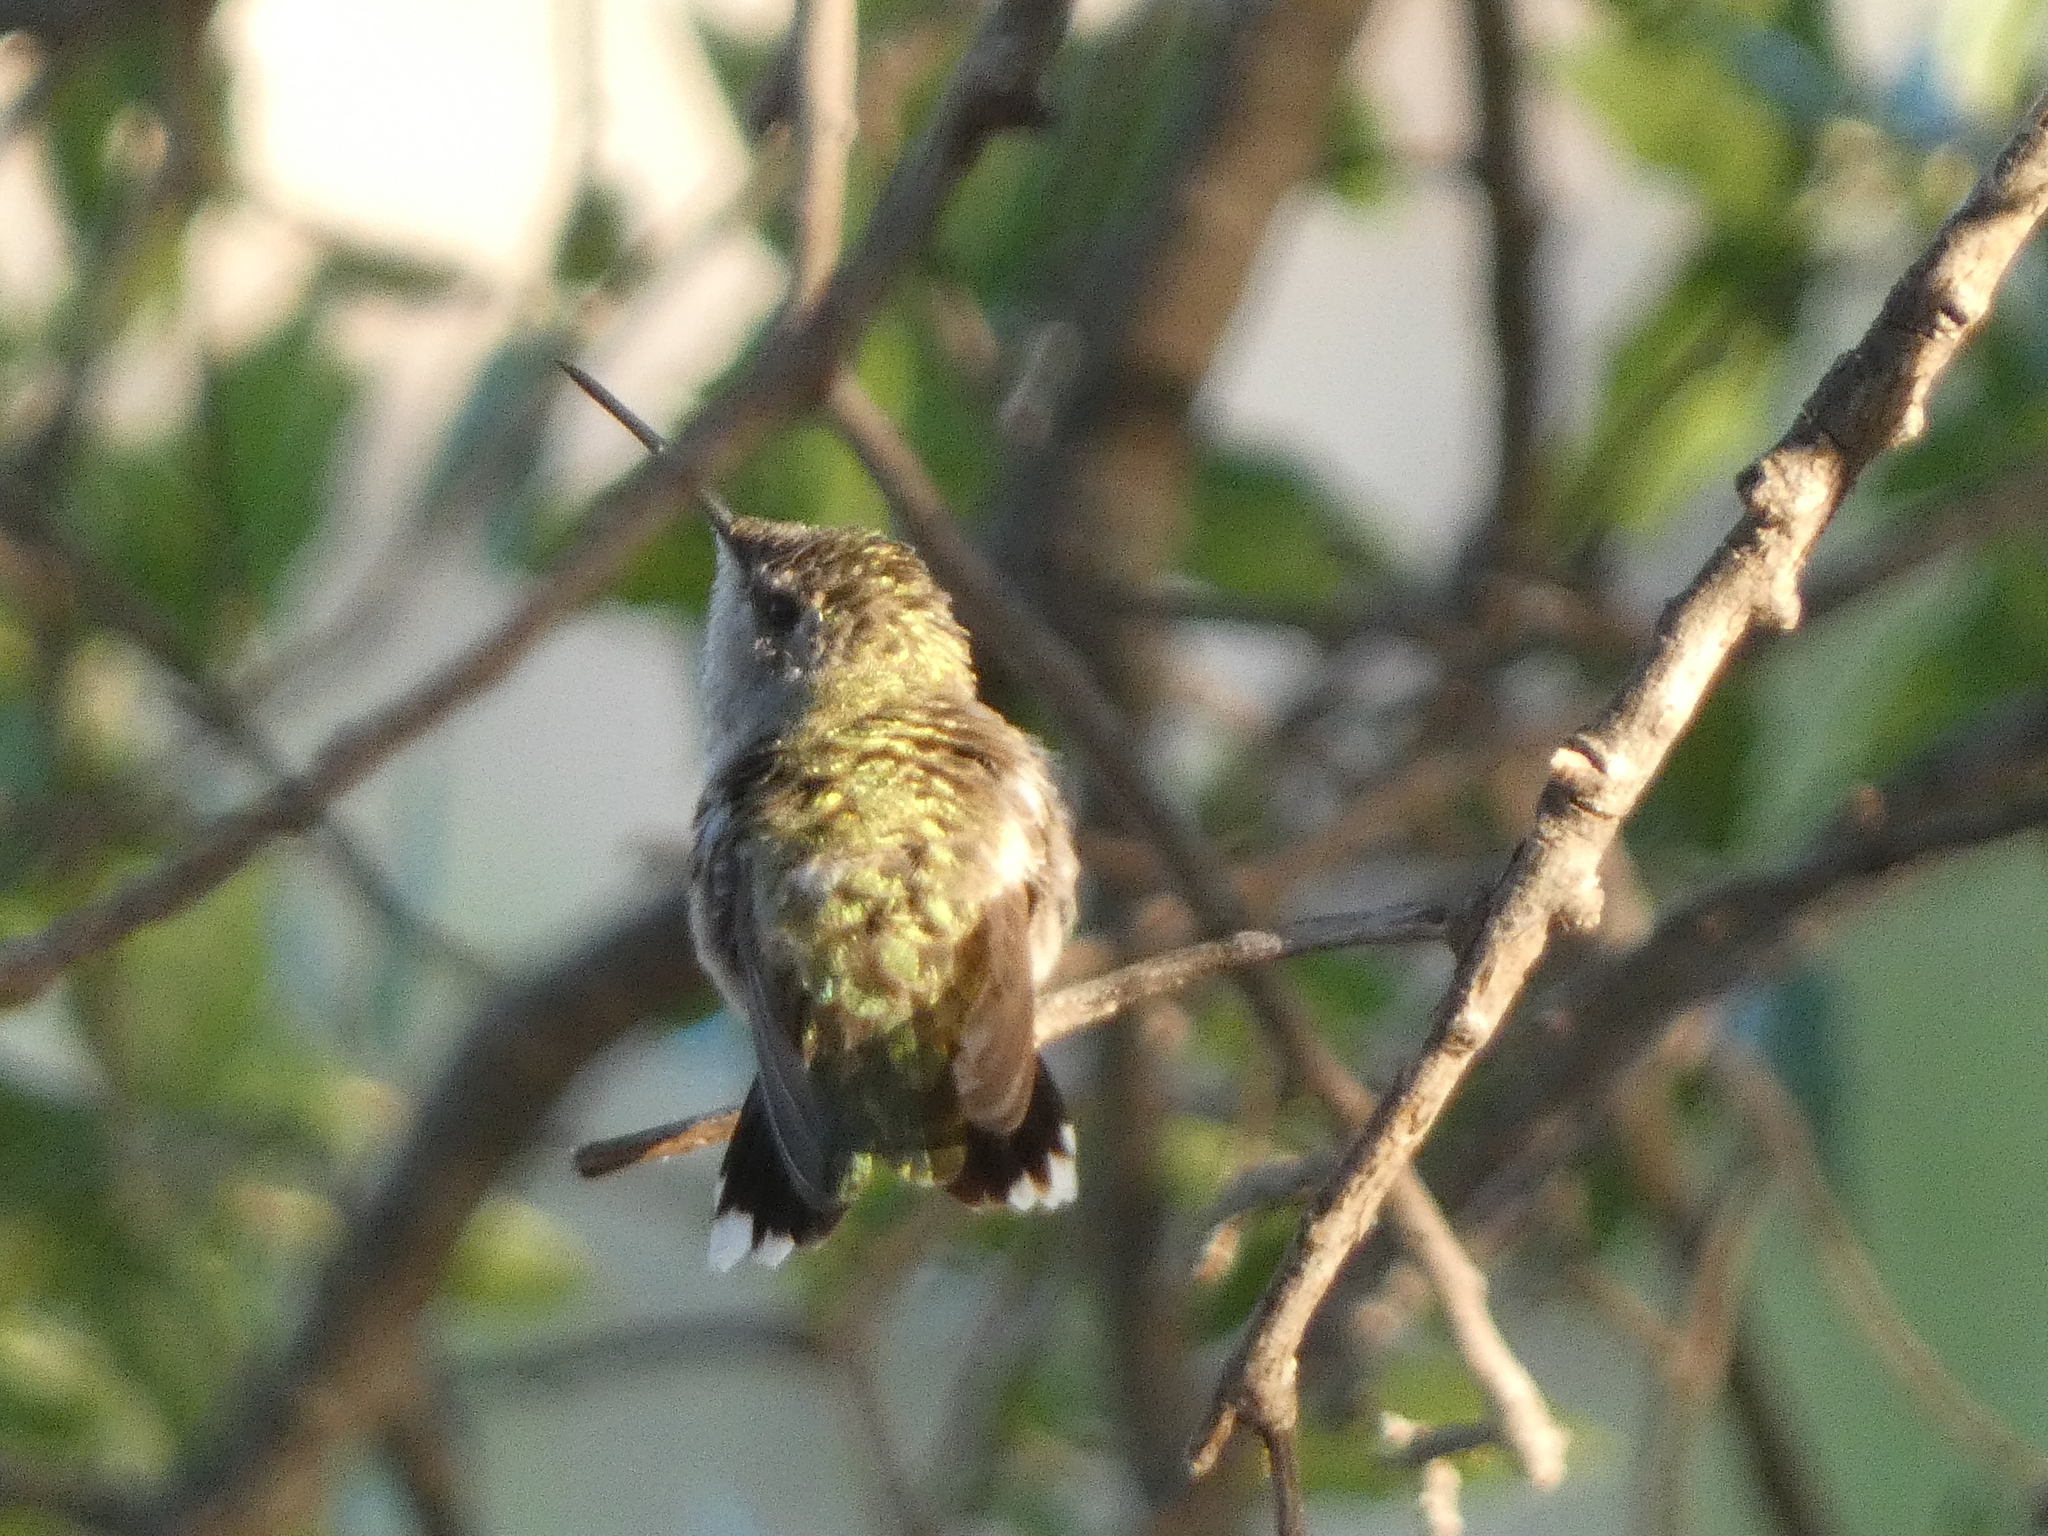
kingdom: Animalia
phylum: Chordata
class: Aves
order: Apodiformes
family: Trochilidae
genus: Archilochus
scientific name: Archilochus alexandri
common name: Black-chinned hummingbird
